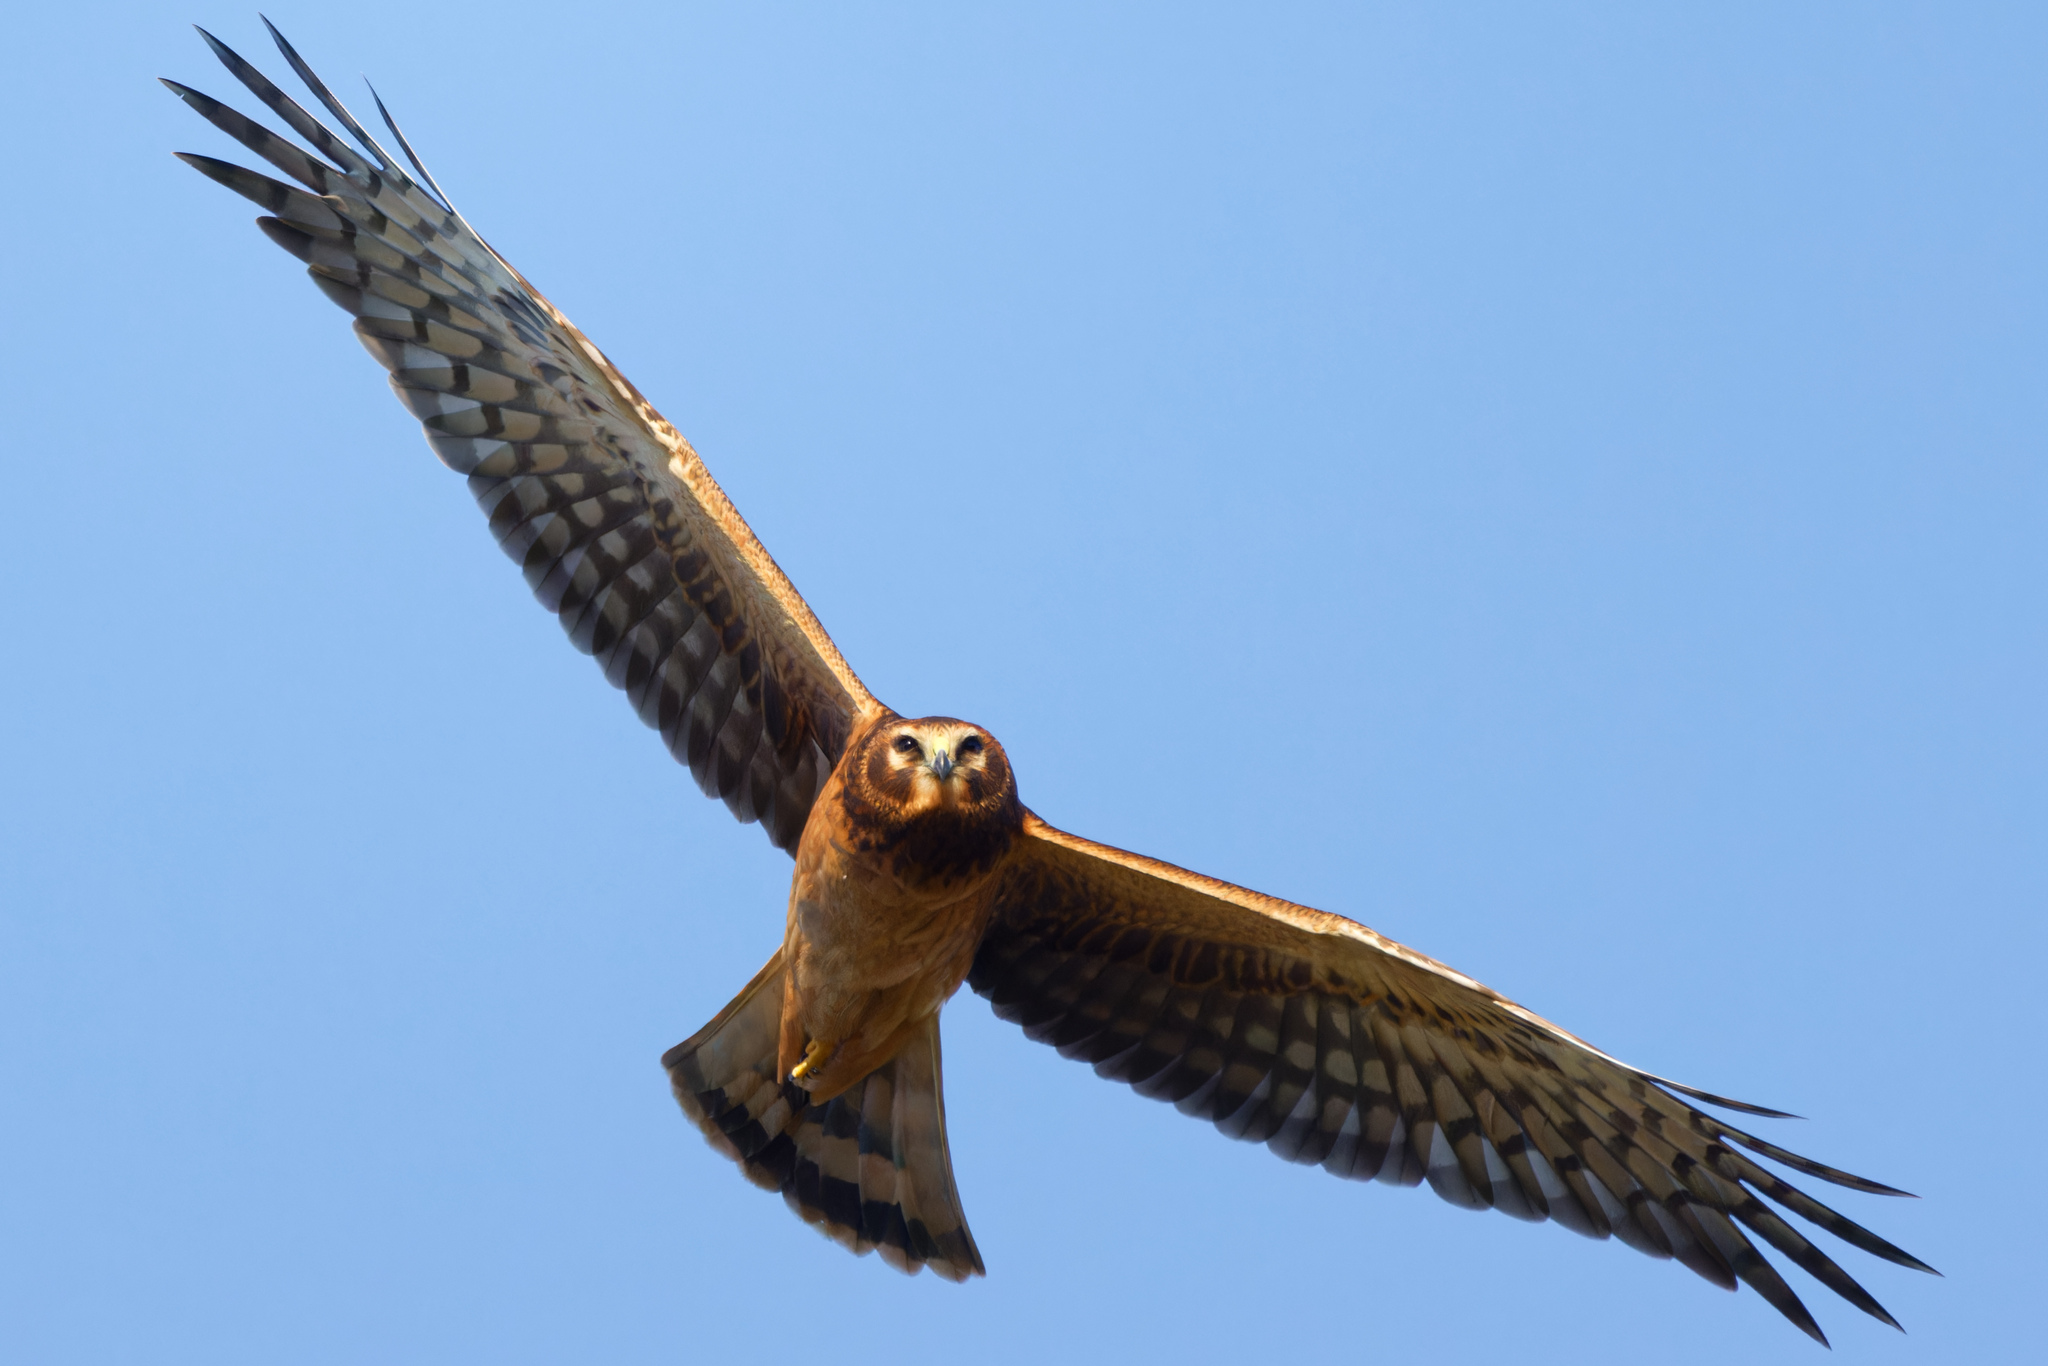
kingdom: Animalia
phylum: Chordata
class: Aves
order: Accipitriformes
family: Accipitridae
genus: Circus
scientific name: Circus cyaneus
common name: Hen harrier
